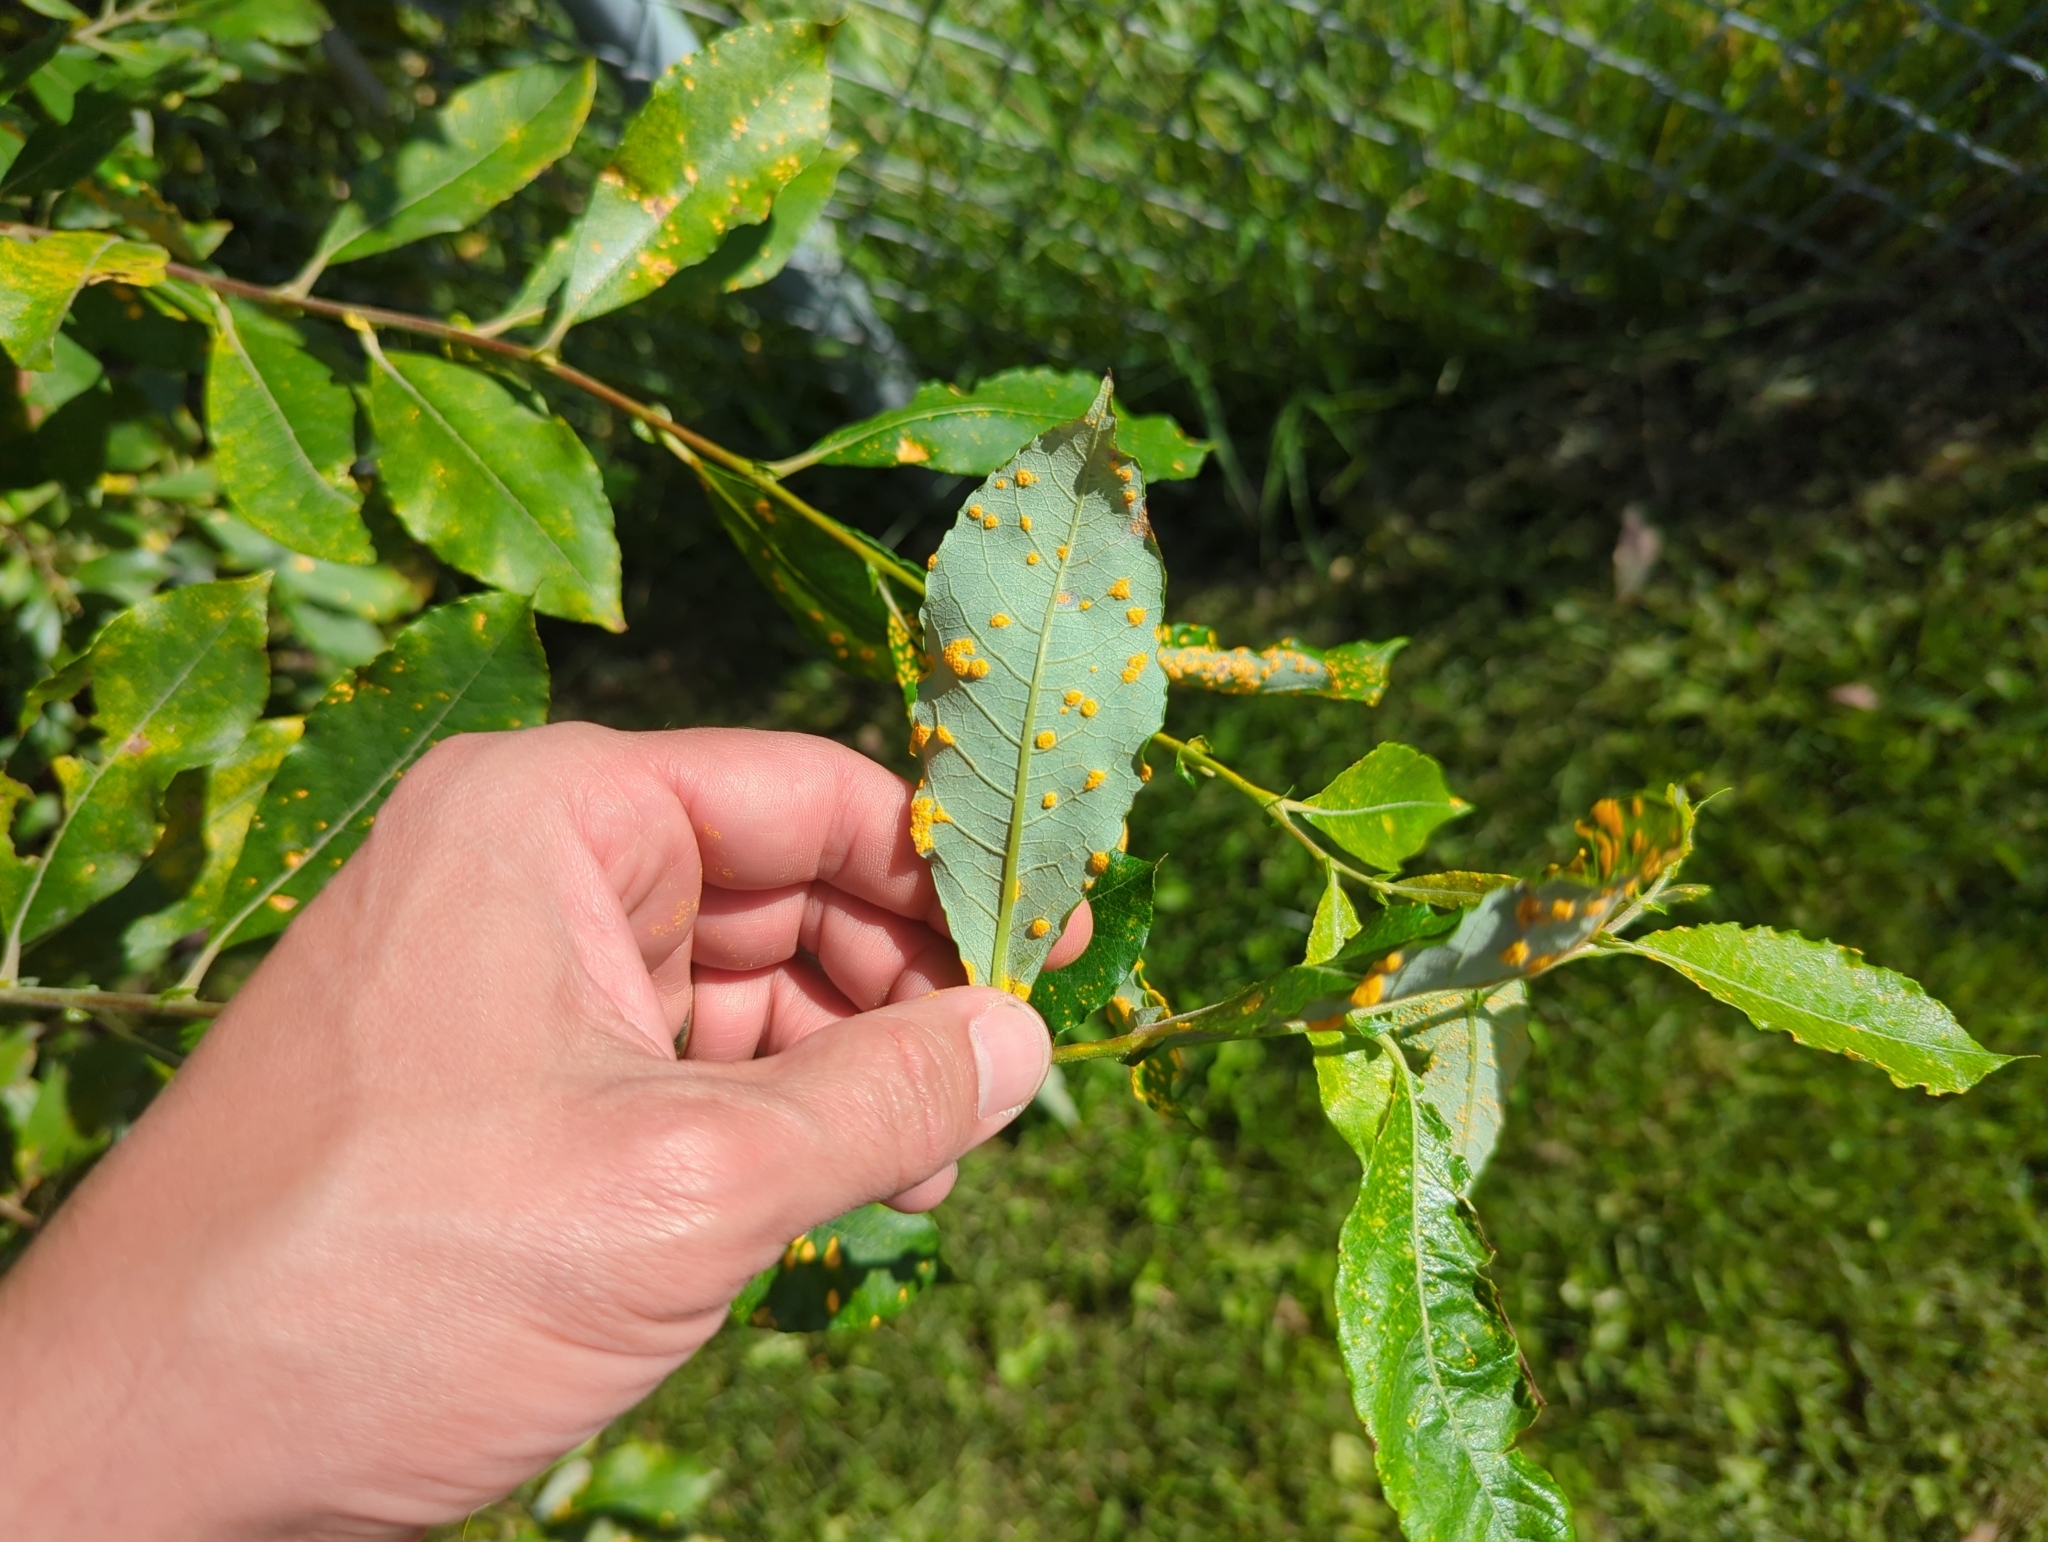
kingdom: Fungi
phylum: Basidiomycota
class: Pucciniomycetes
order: Pucciniales
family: Melampsoraceae
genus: Melampsora
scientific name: Melampsora
